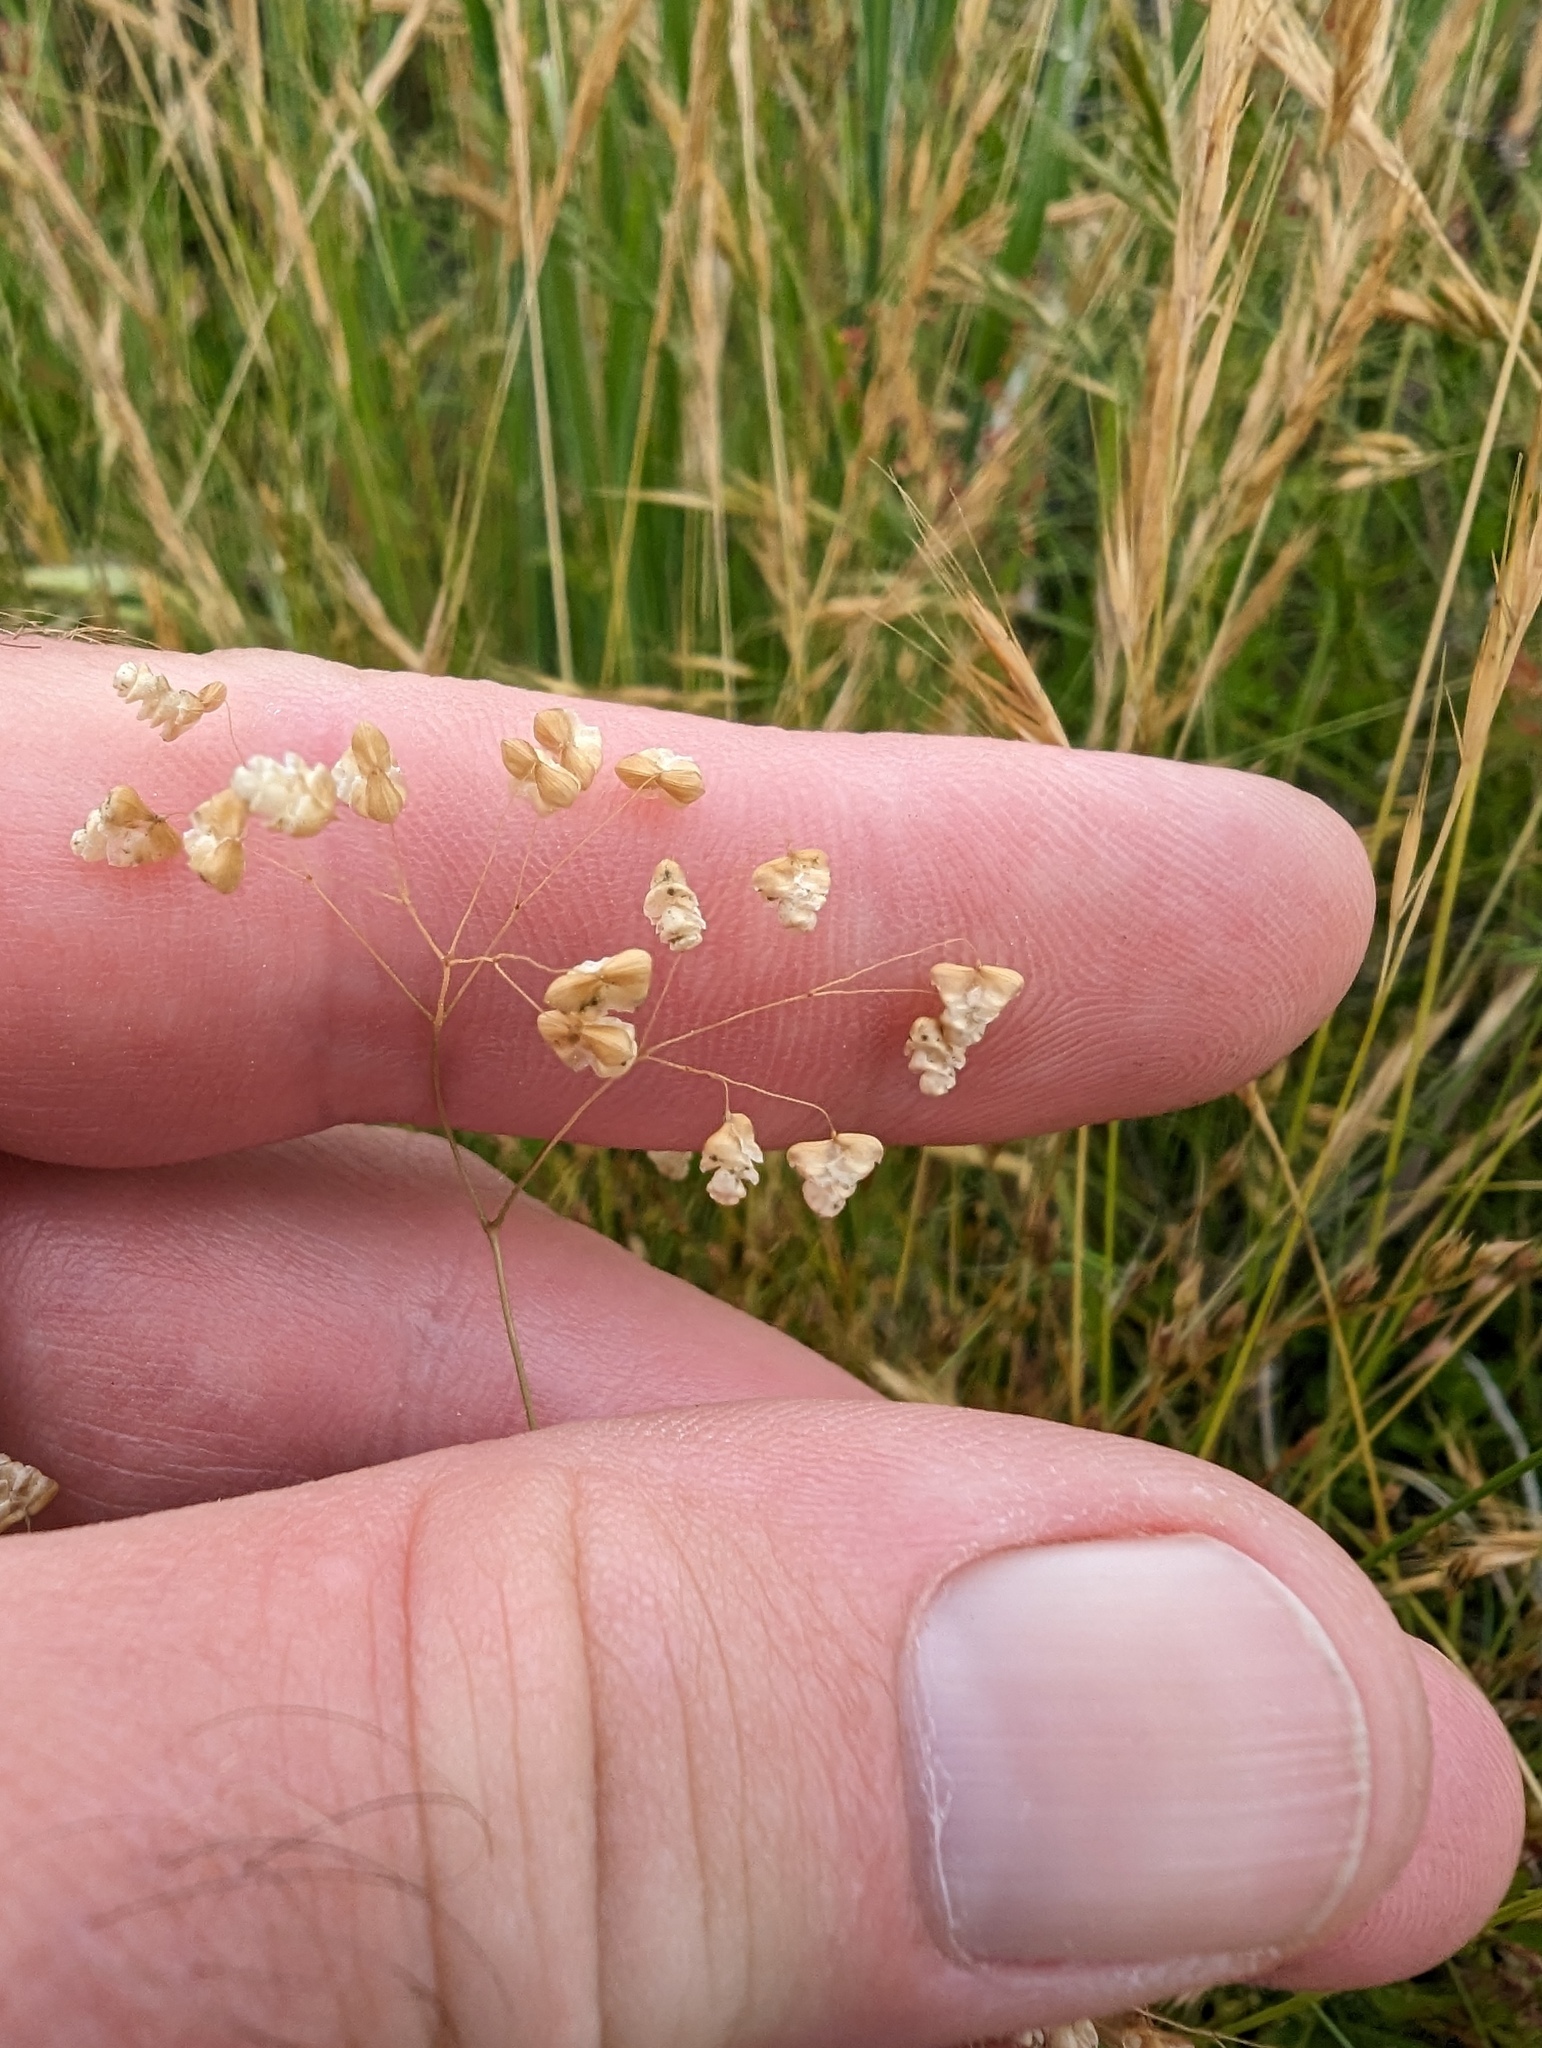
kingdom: Plantae
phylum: Tracheophyta
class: Liliopsida
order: Poales
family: Poaceae
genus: Briza
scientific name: Briza minor
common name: Lesser quaking-grass
